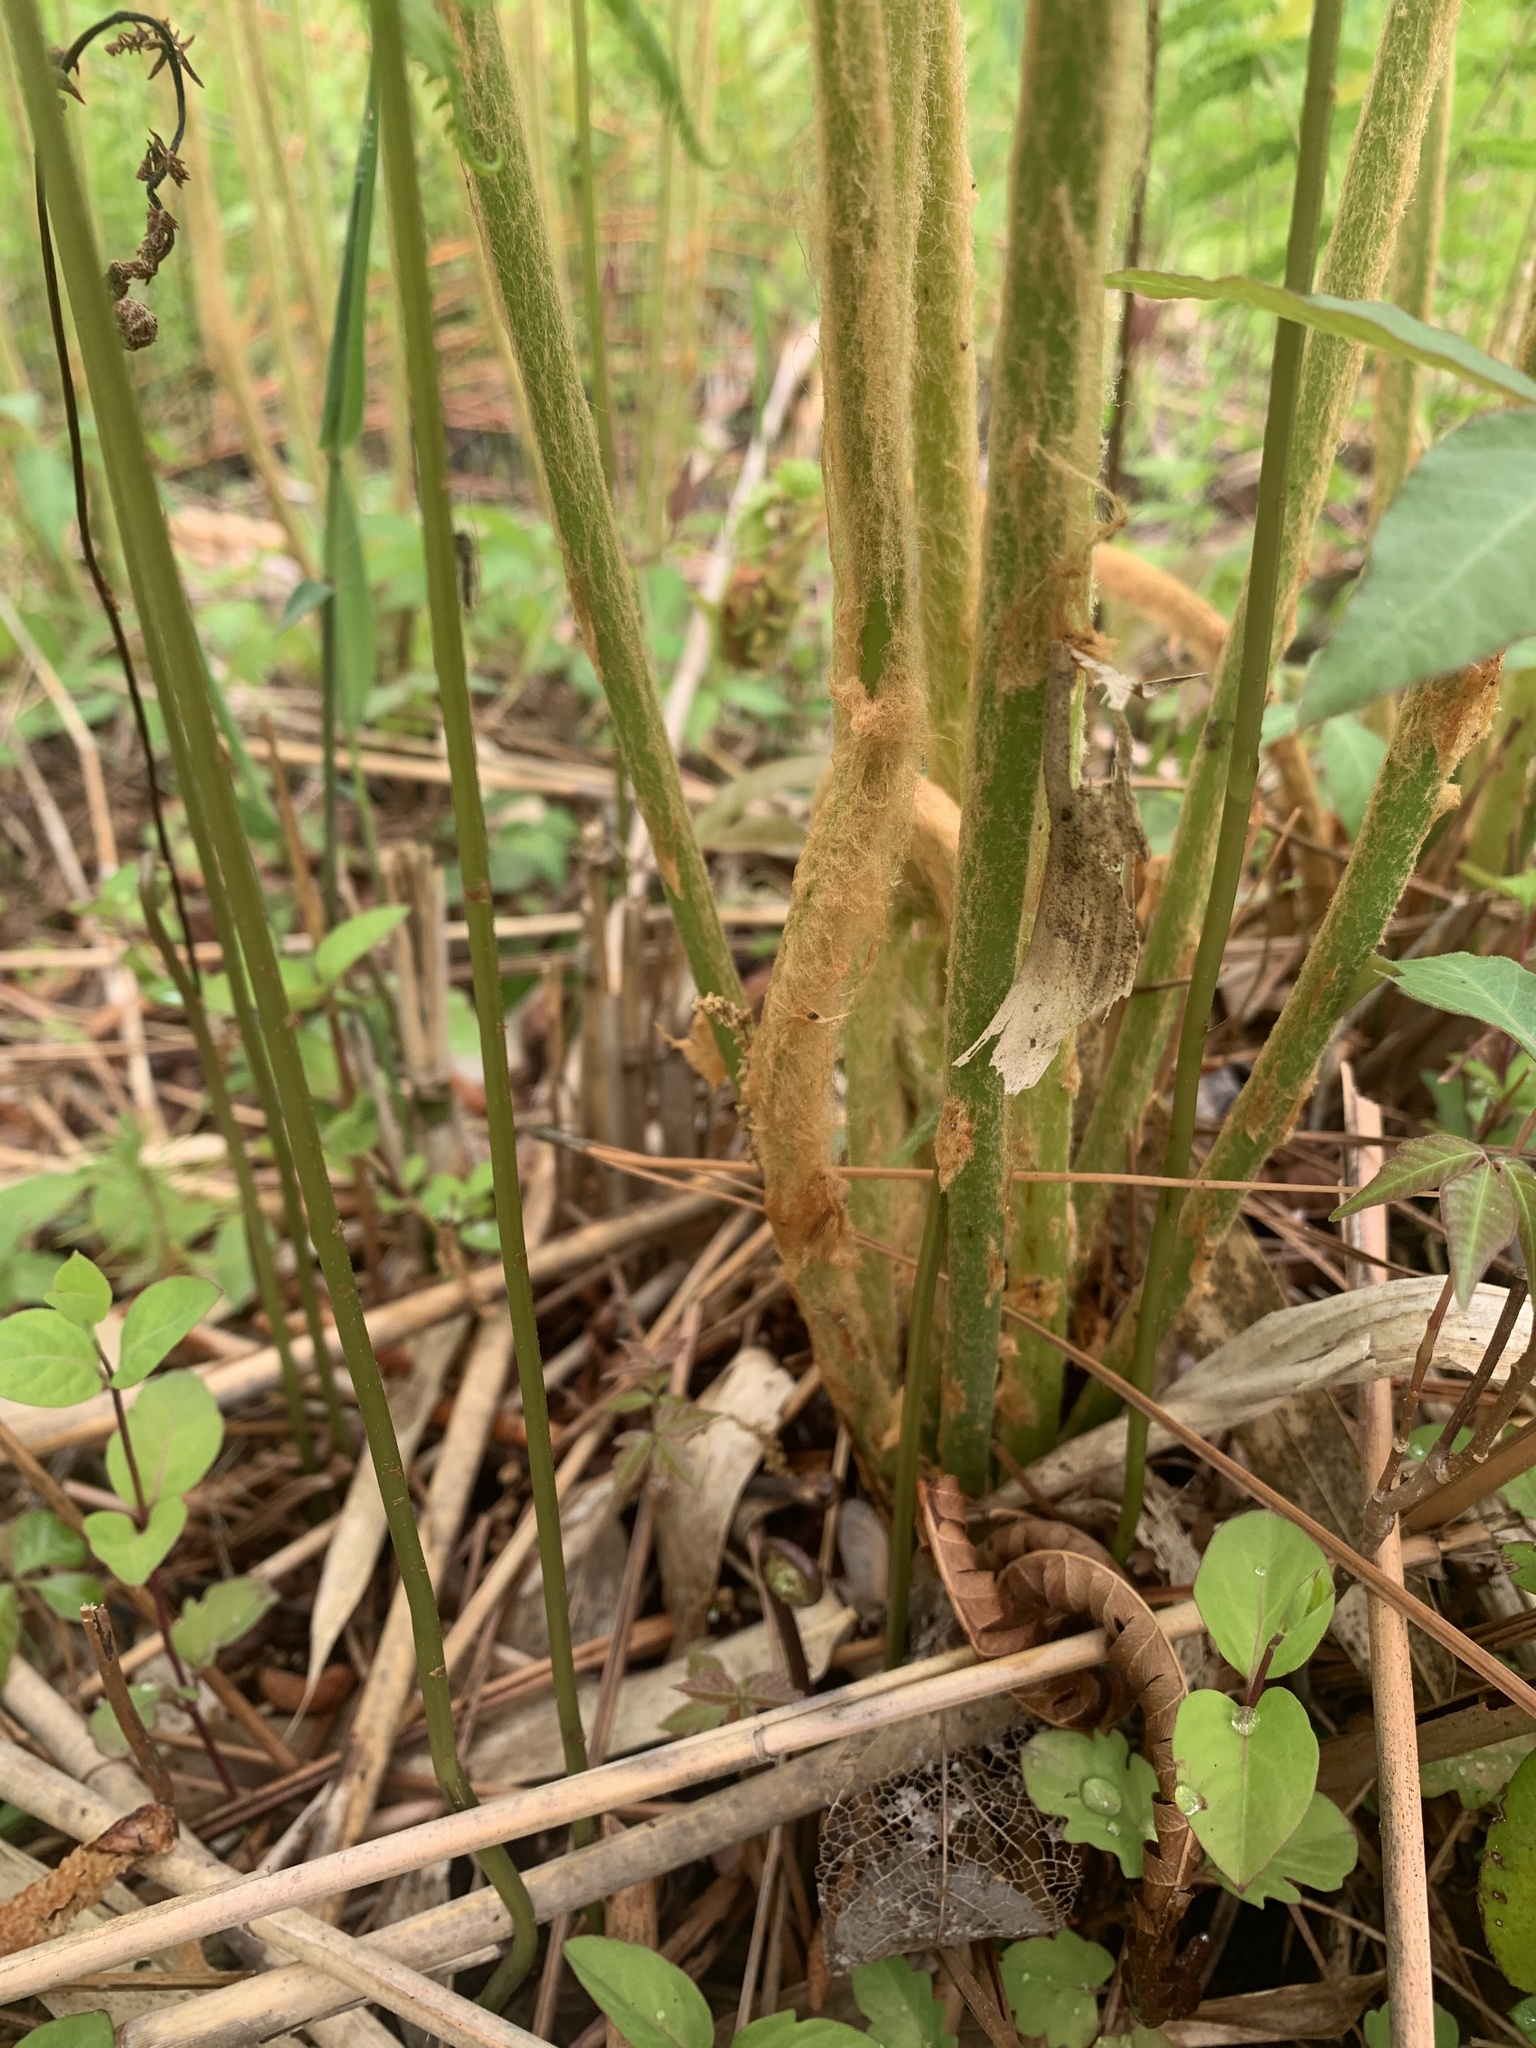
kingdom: Plantae
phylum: Tracheophyta
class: Polypodiopsida
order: Osmundales
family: Osmundaceae
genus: Osmundastrum
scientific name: Osmundastrum cinnamomeum
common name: Cinnamon fern
